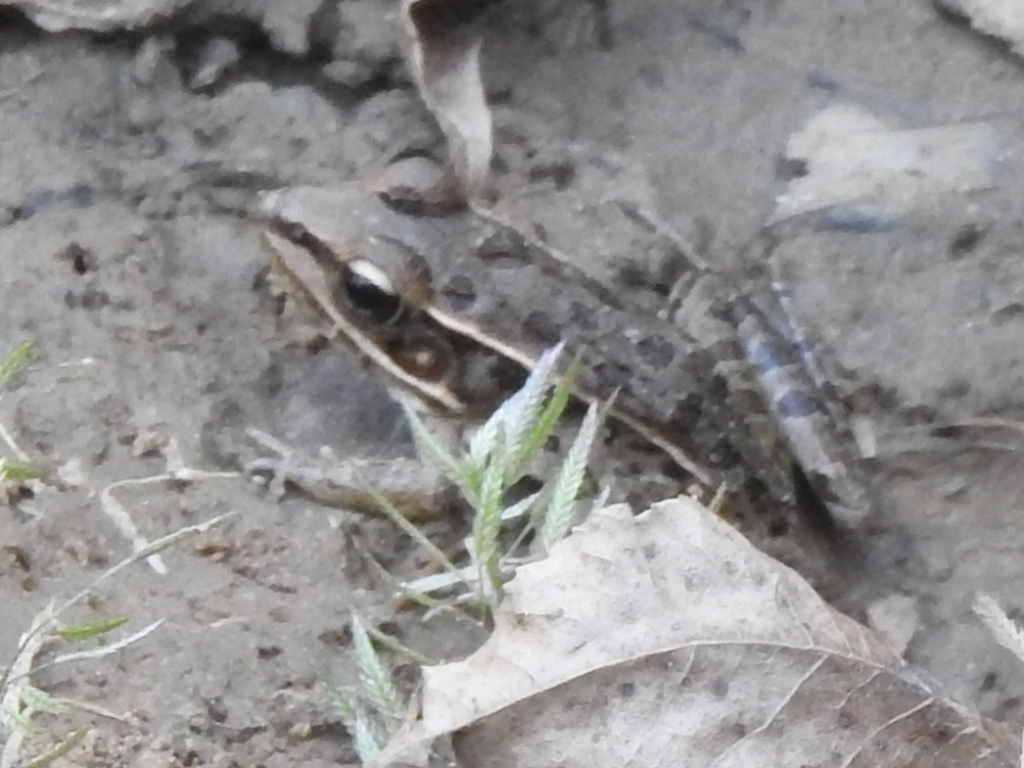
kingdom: Animalia
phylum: Chordata
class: Amphibia
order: Anura
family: Ranidae
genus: Lithobates
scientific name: Lithobates sphenocephalus
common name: Southern leopard frog
